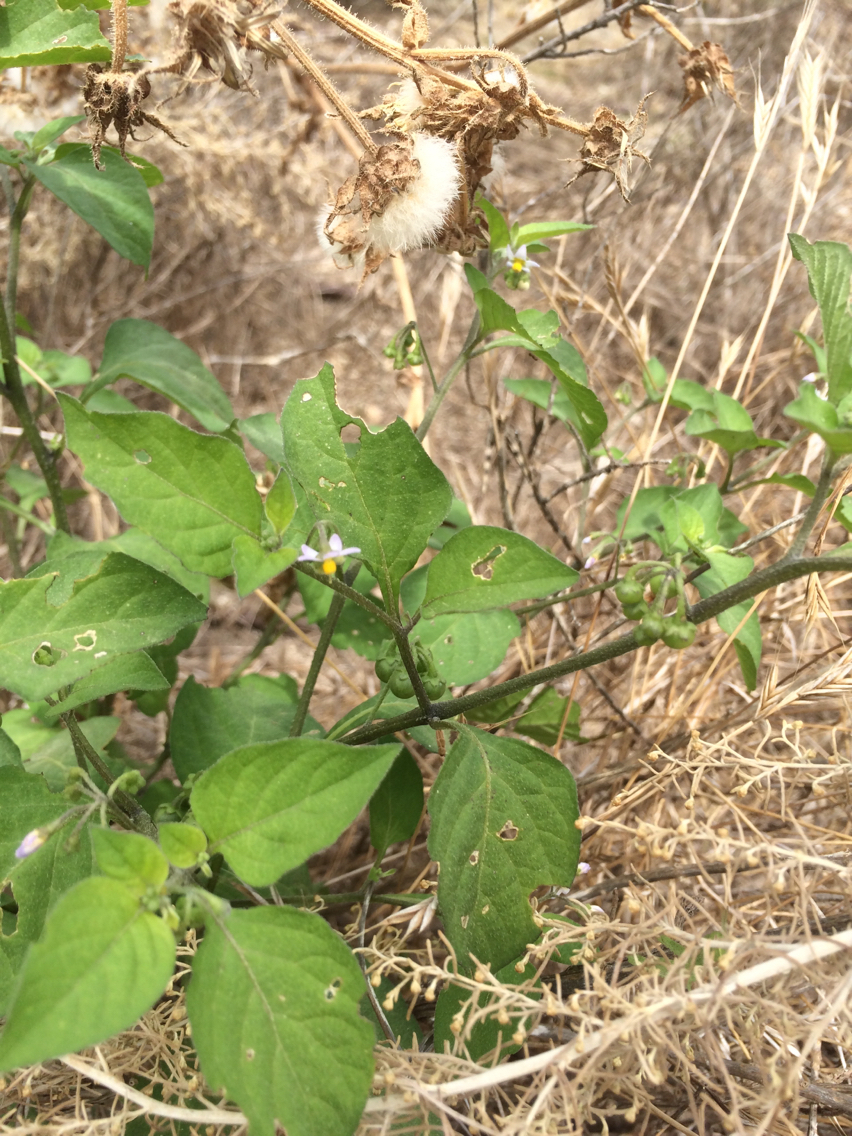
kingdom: Plantae
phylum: Tracheophyta
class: Magnoliopsida
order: Solanales
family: Solanaceae
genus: Solanum
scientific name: Solanum americanum
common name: American black nightshade
